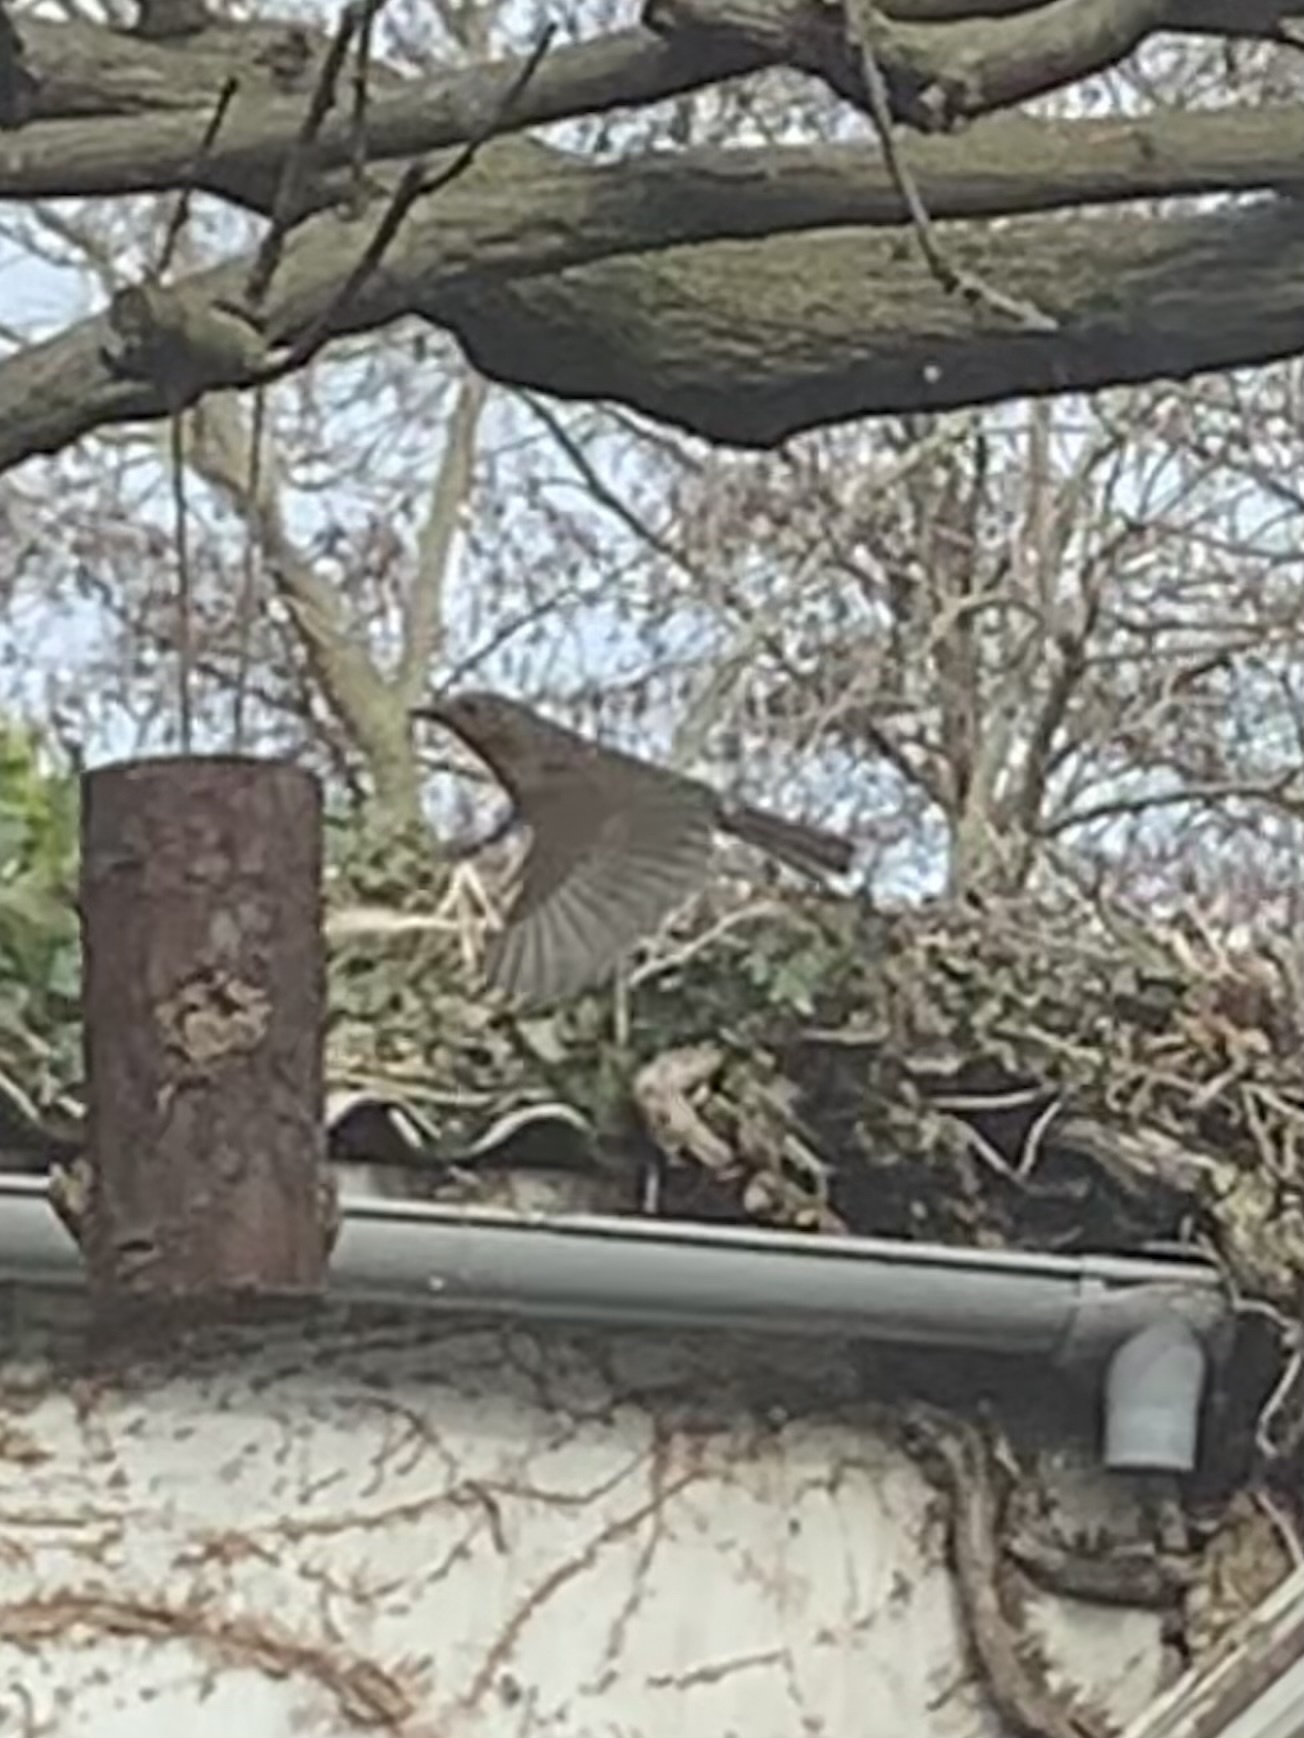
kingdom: Animalia
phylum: Chordata
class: Aves
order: Passeriformes
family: Muscicapidae
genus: Erithacus
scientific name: Erithacus rubecula
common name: European robin
